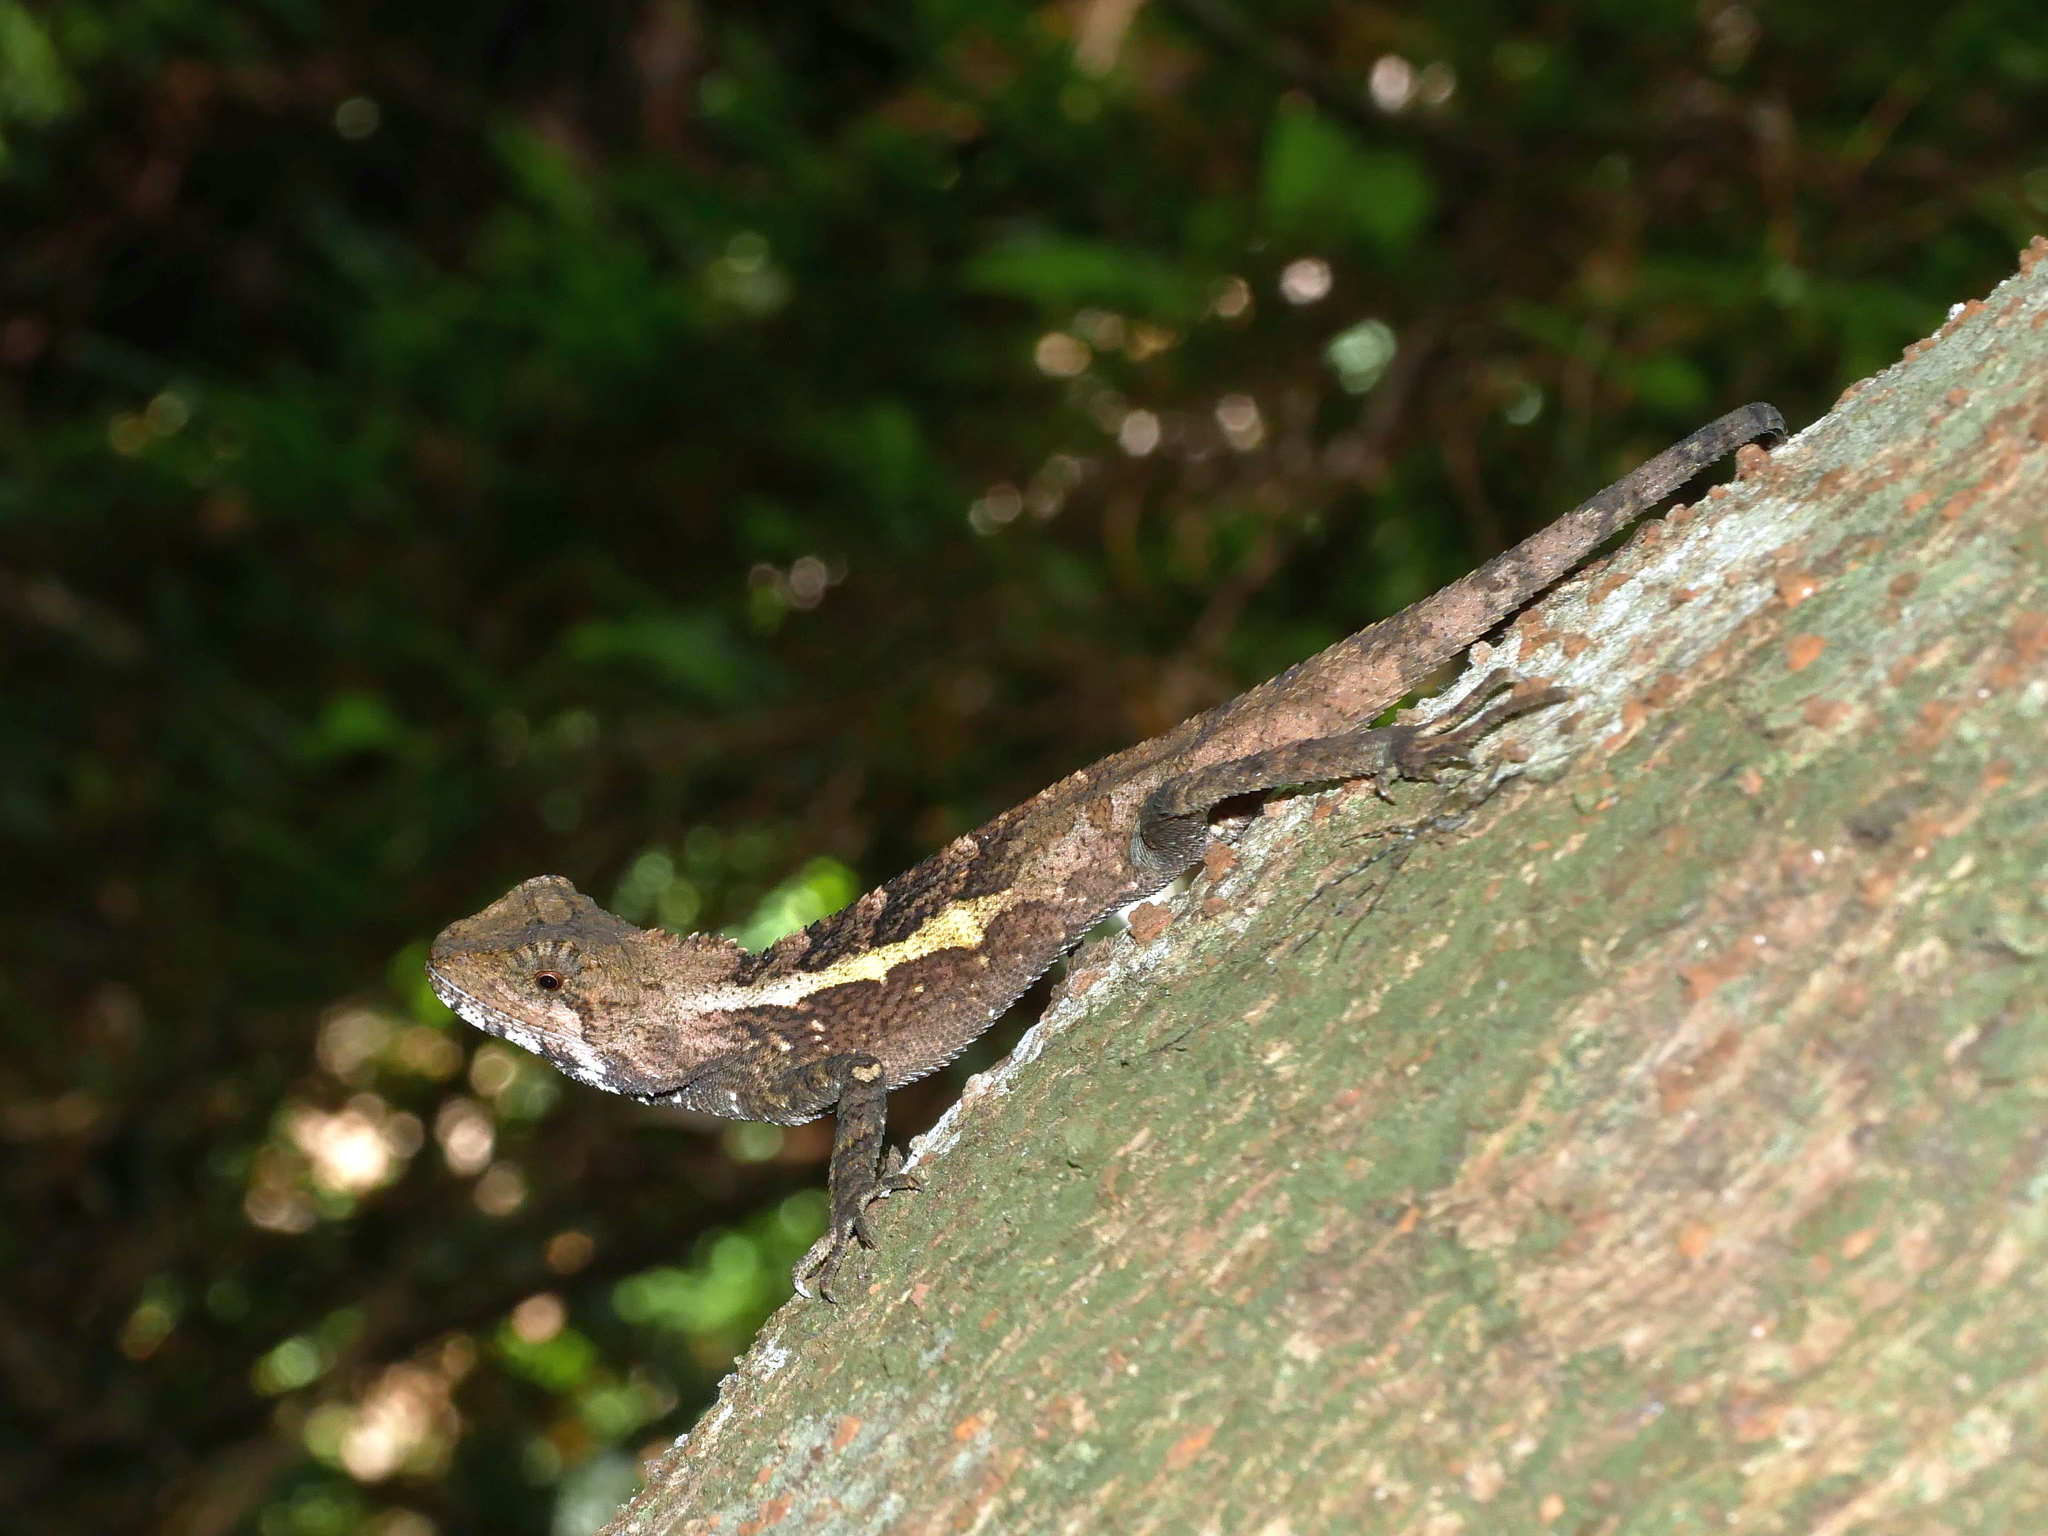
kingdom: Animalia
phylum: Chordata
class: Squamata
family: Agamidae
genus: Diploderma
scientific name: Diploderma swinhonis
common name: Taiwan japalure
